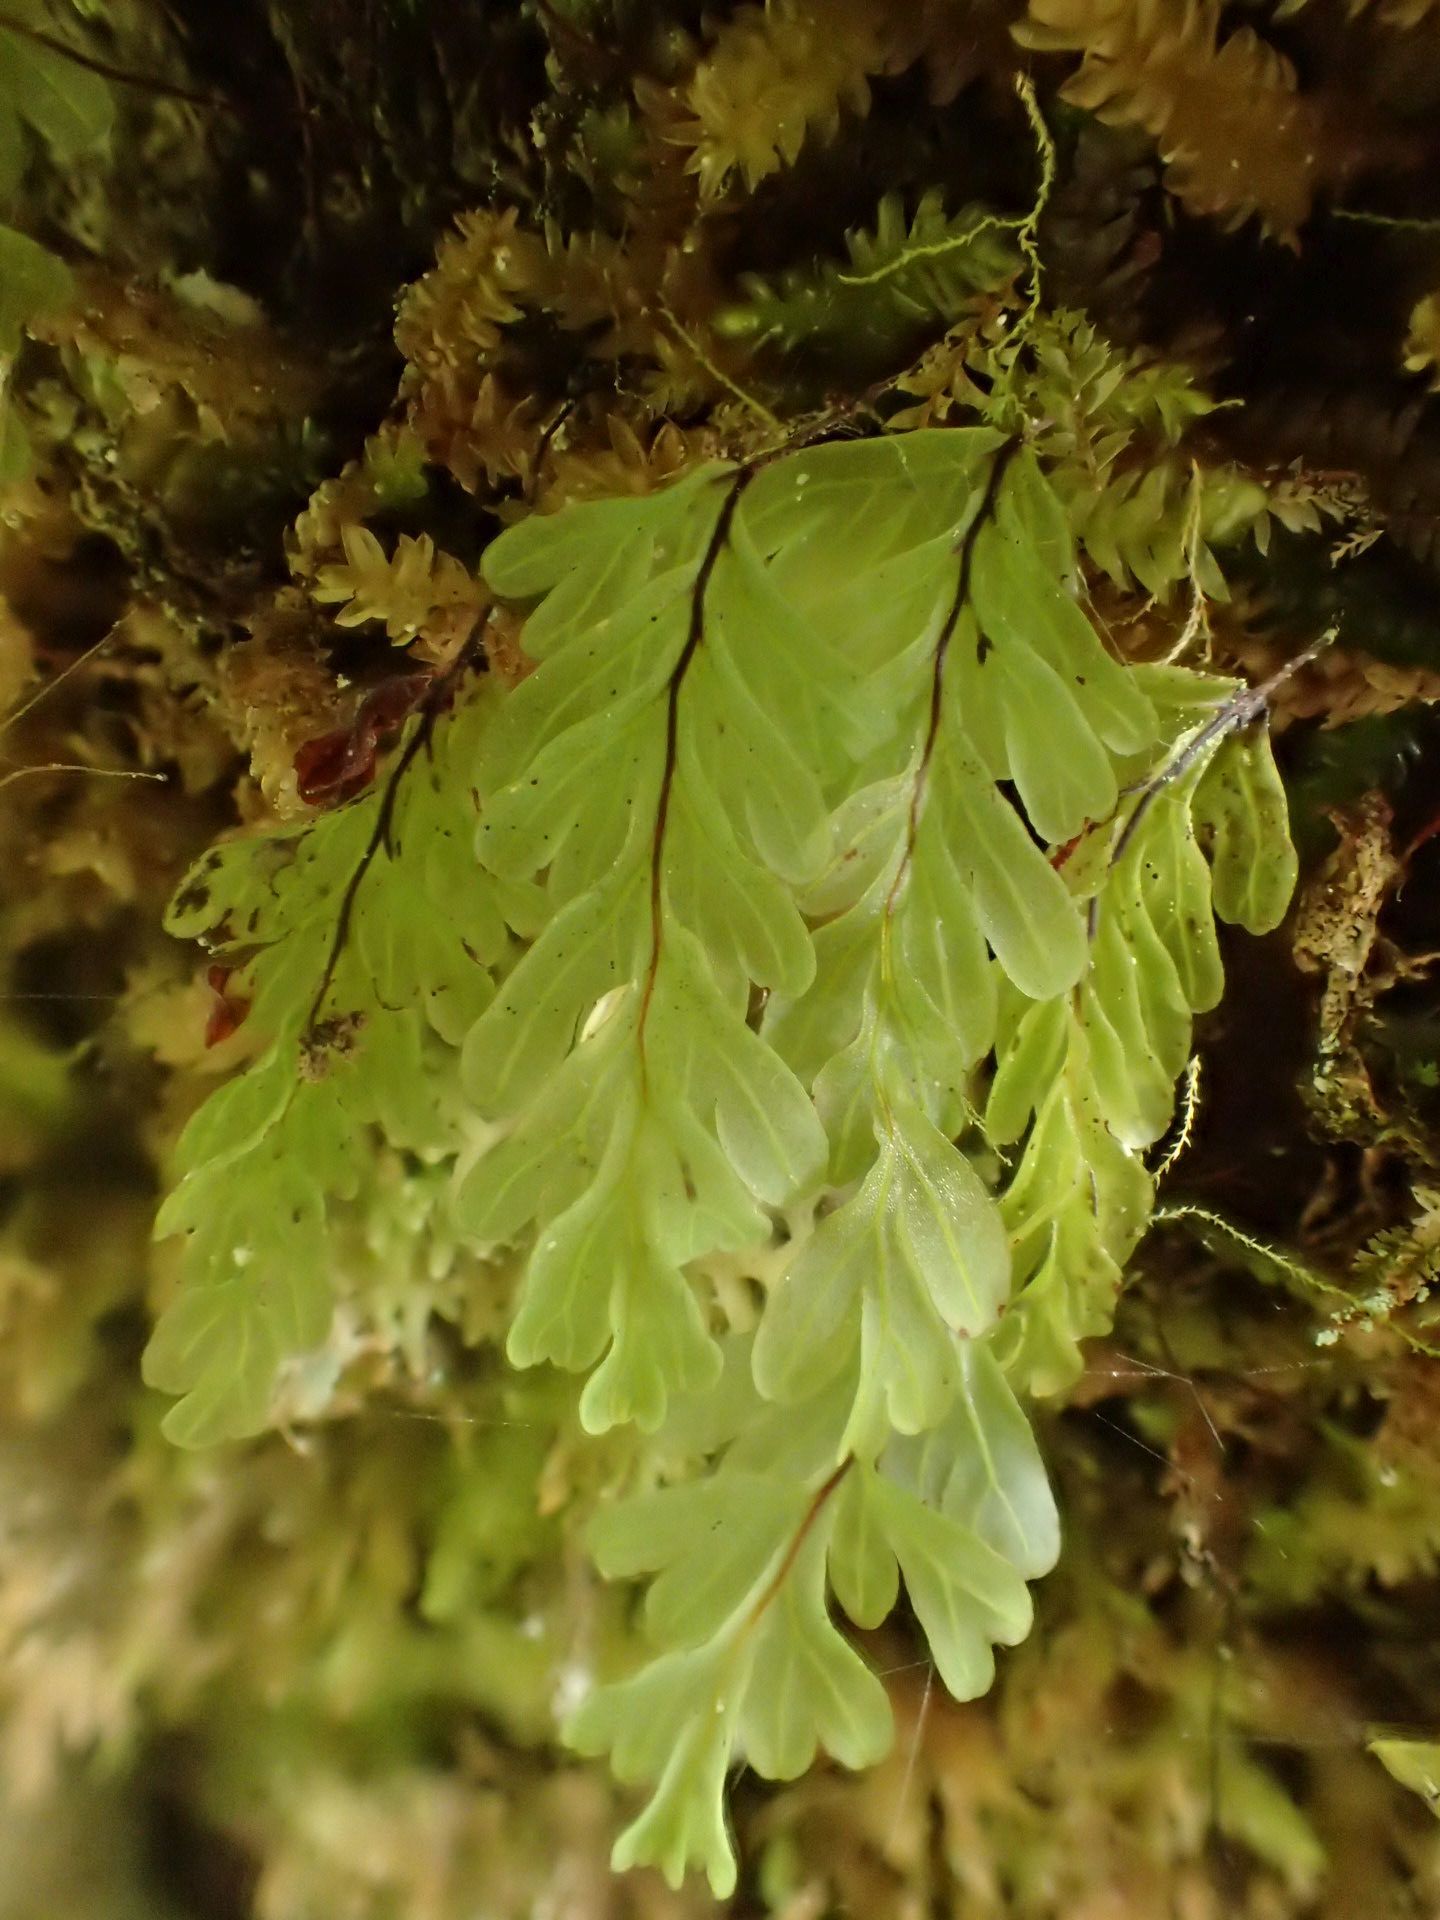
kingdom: Plantae
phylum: Tracheophyta
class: Polypodiopsida
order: Hymenophyllales
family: Hymenophyllaceae
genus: Hymenophyllum
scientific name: Hymenophyllum rarum
